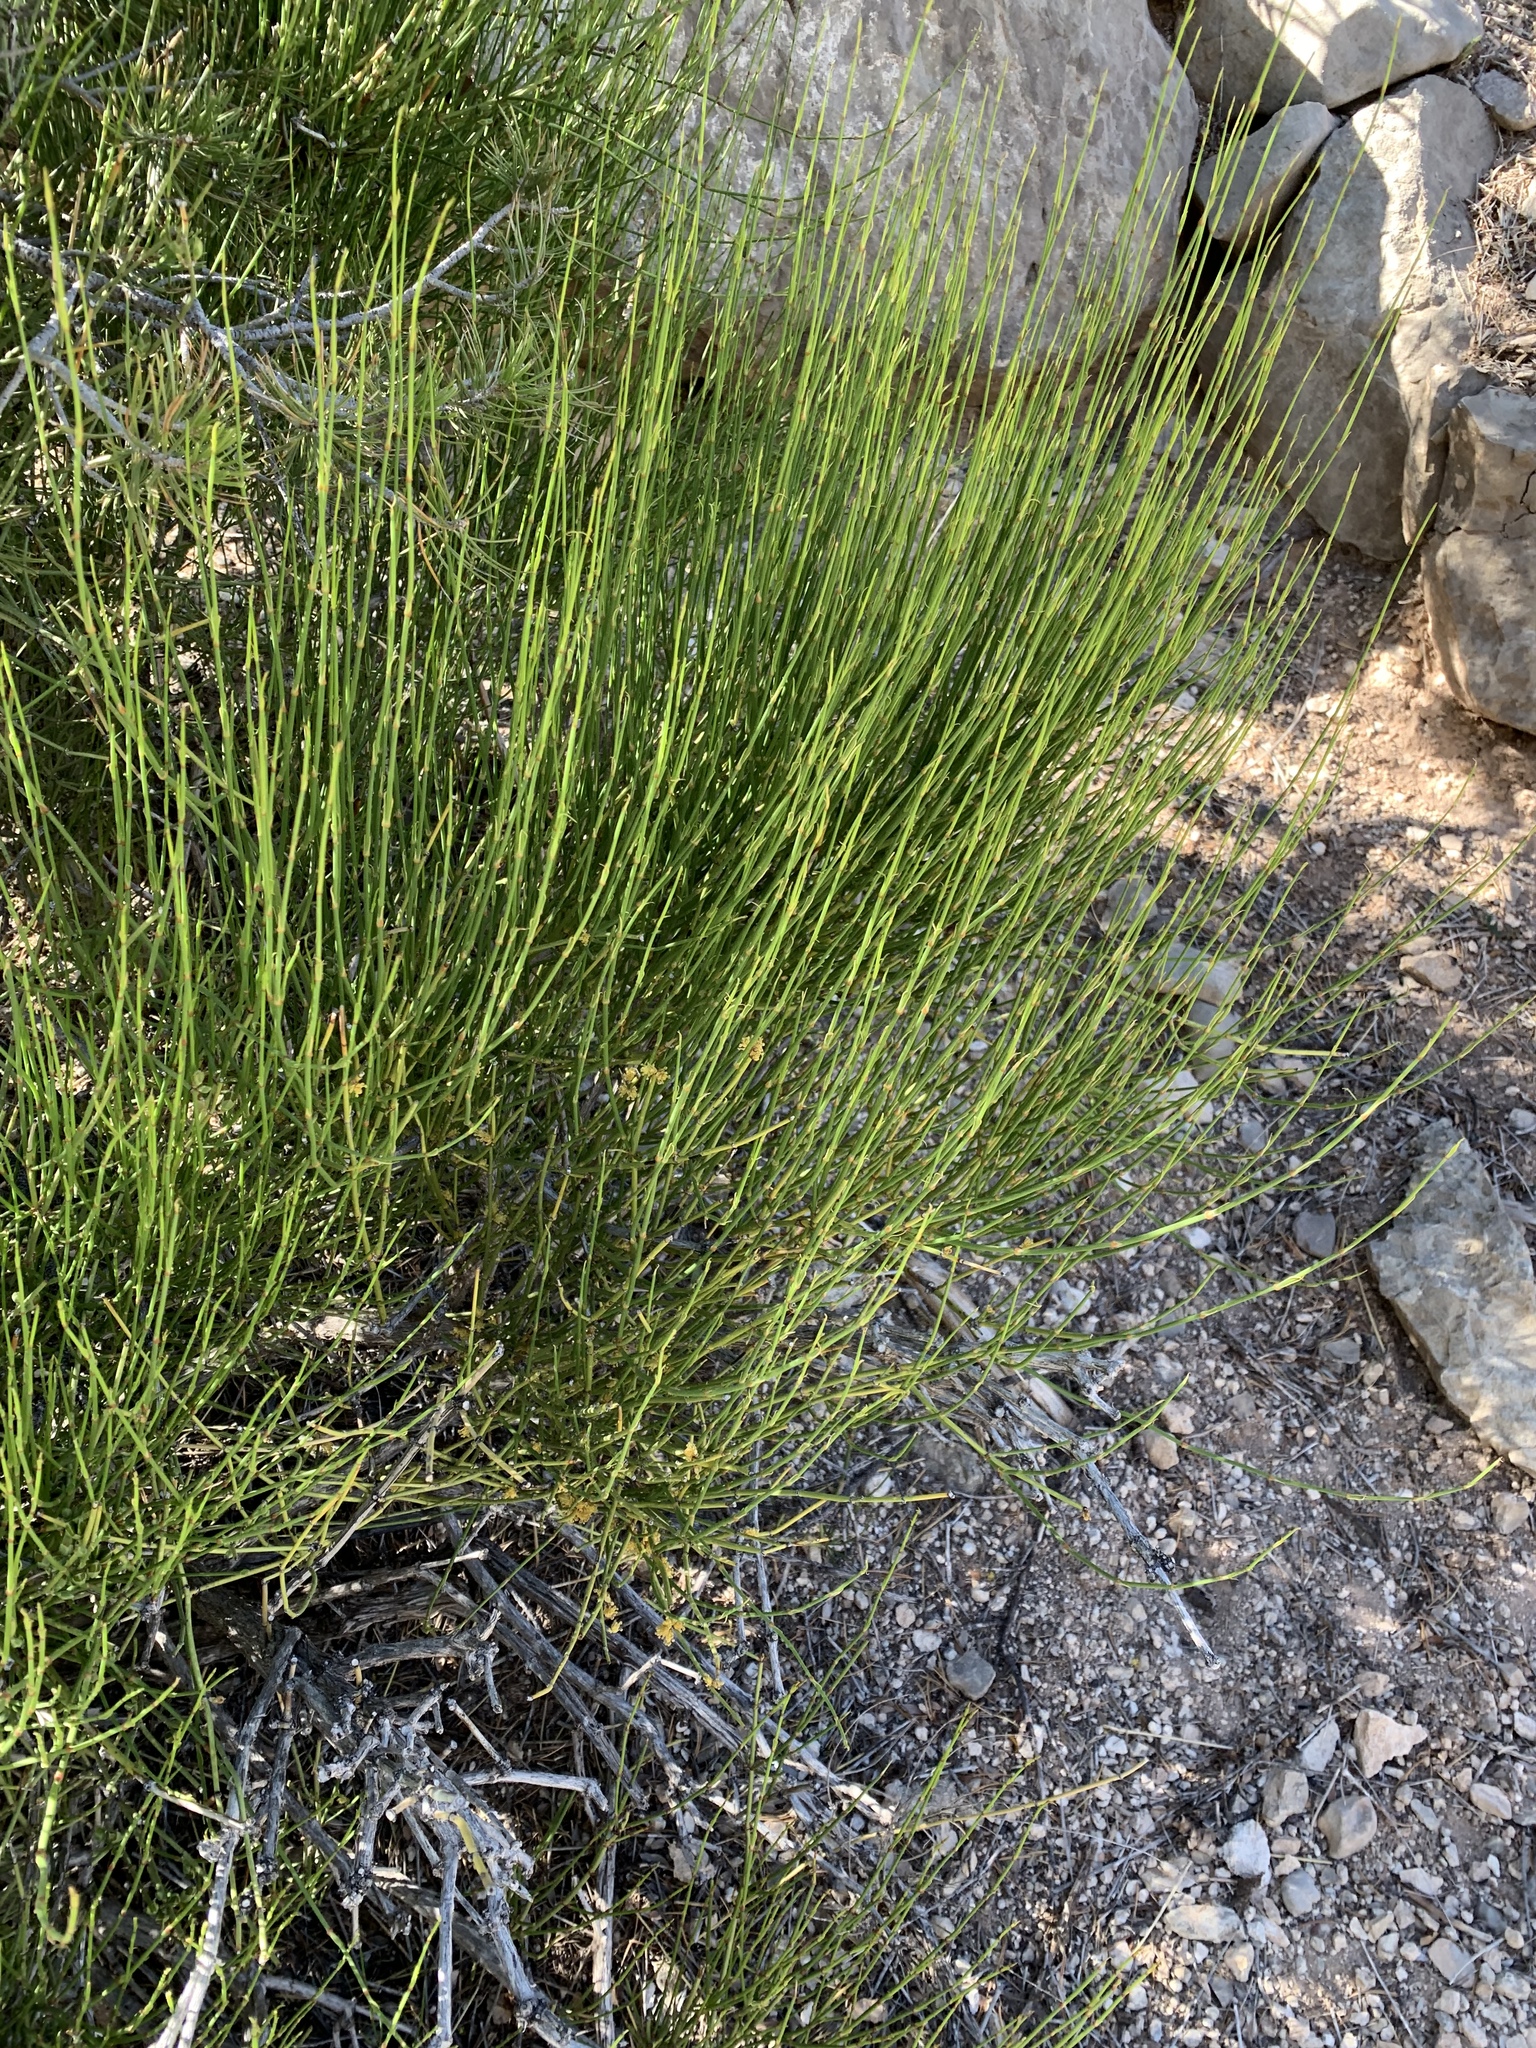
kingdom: Plantae
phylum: Tracheophyta
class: Gnetopsida
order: Ephedrales
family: Ephedraceae
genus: Ephedra
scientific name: Ephedra trifurca
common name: Mexican-tea
